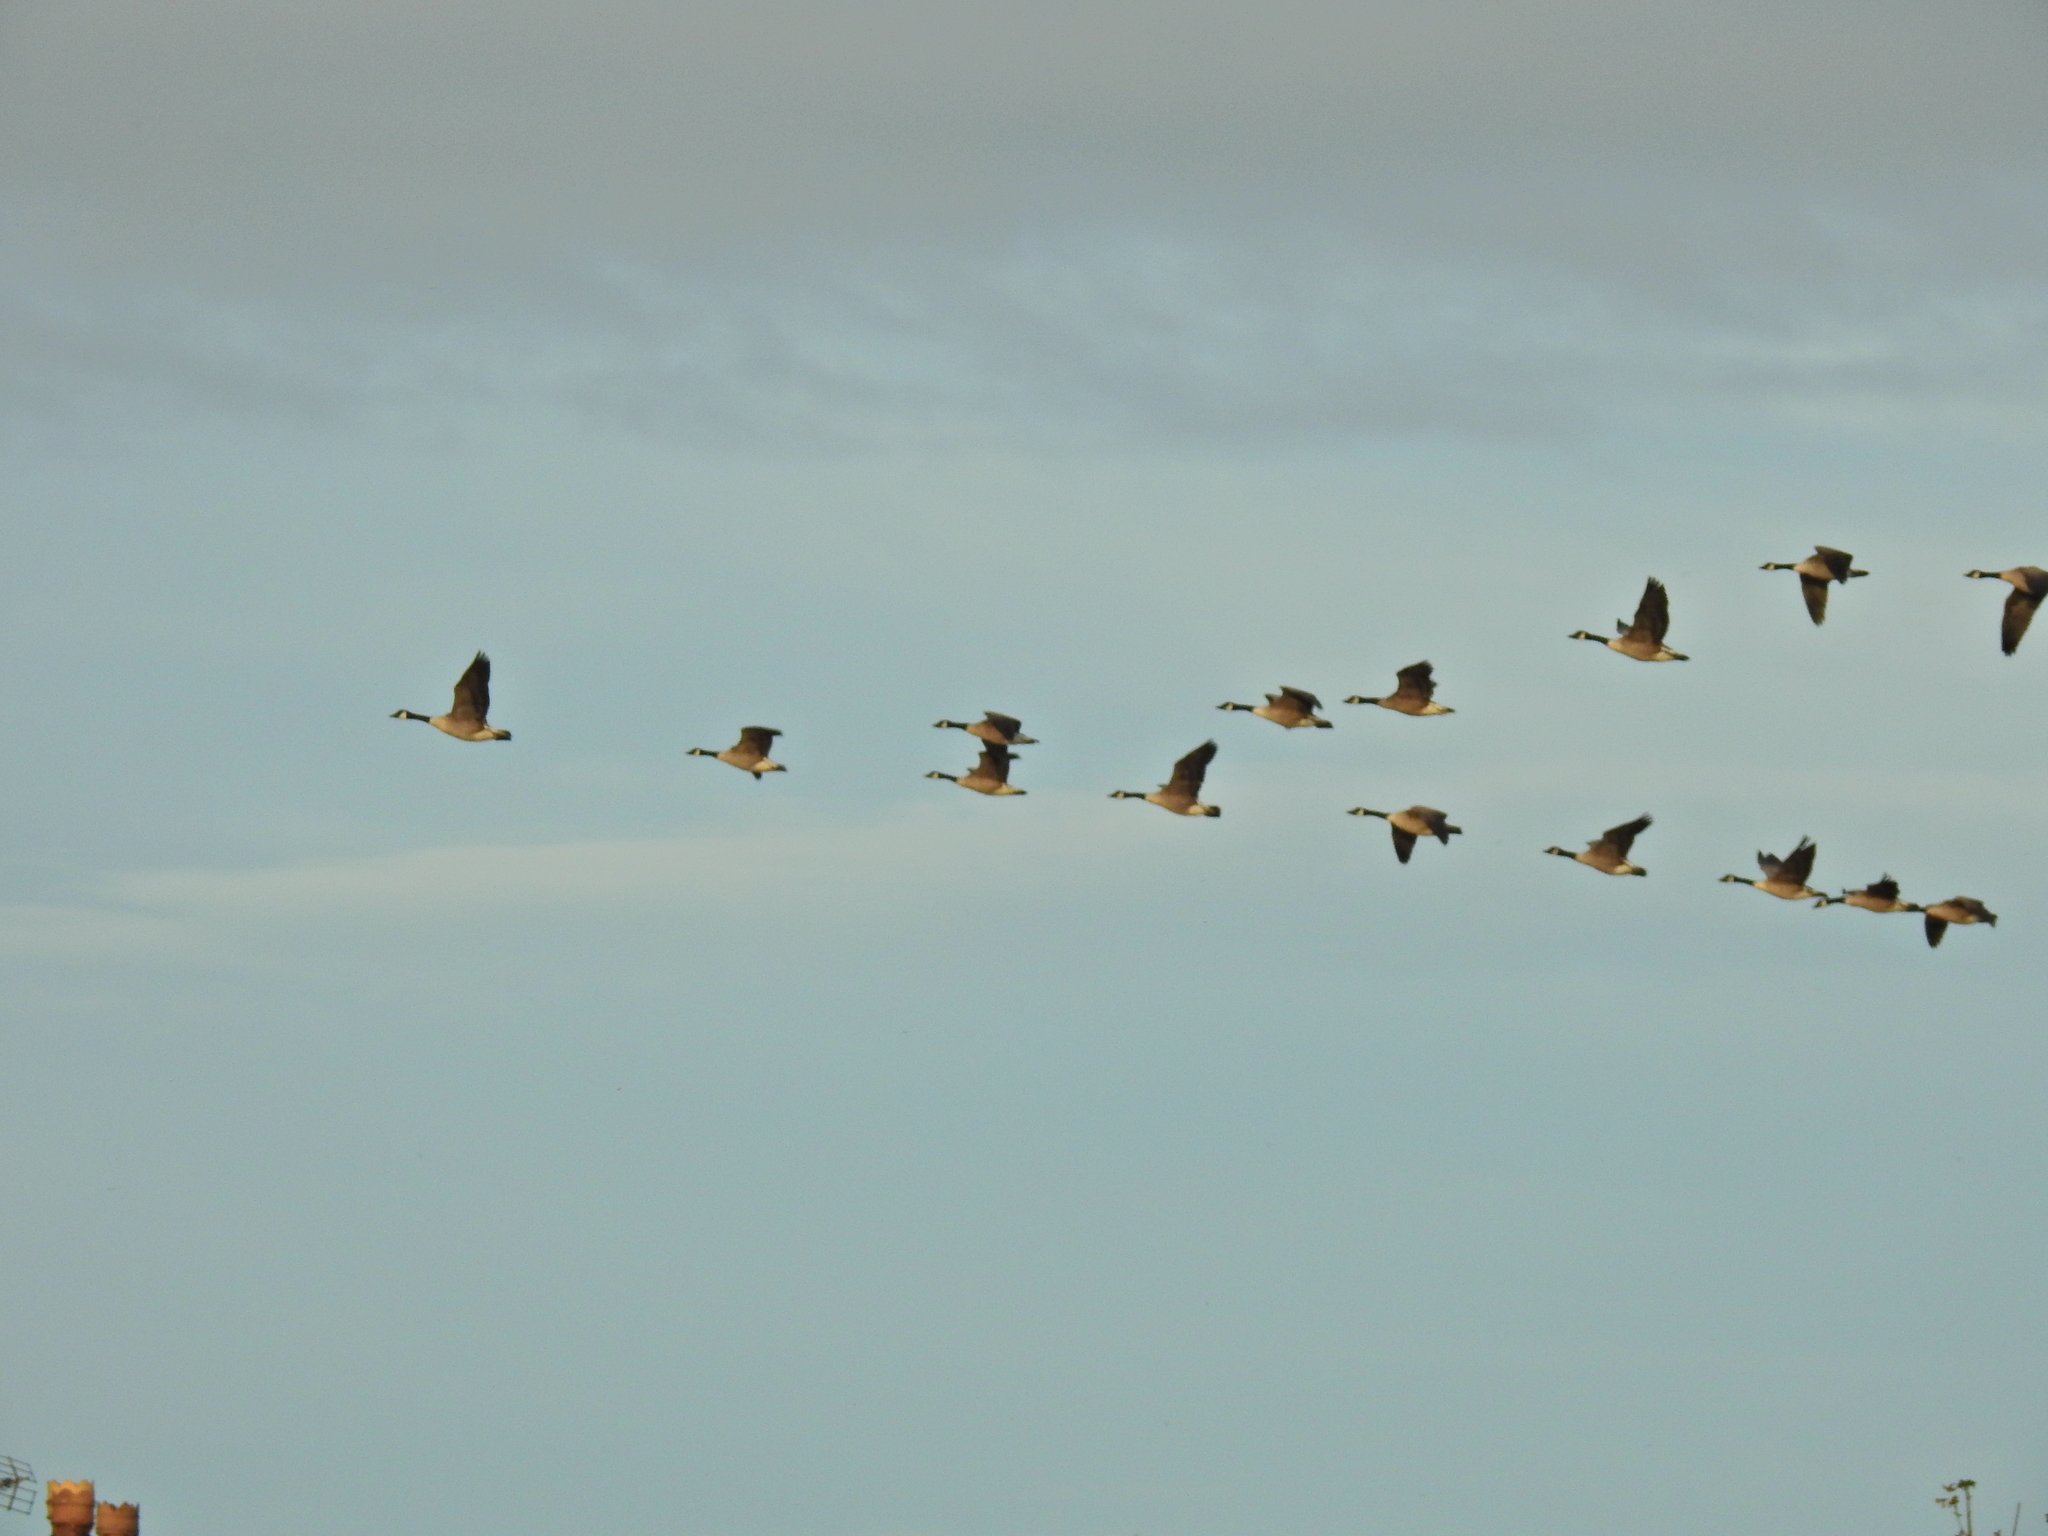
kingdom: Animalia
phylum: Chordata
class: Aves
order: Anseriformes
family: Anatidae
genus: Branta
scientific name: Branta canadensis
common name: Canada goose
